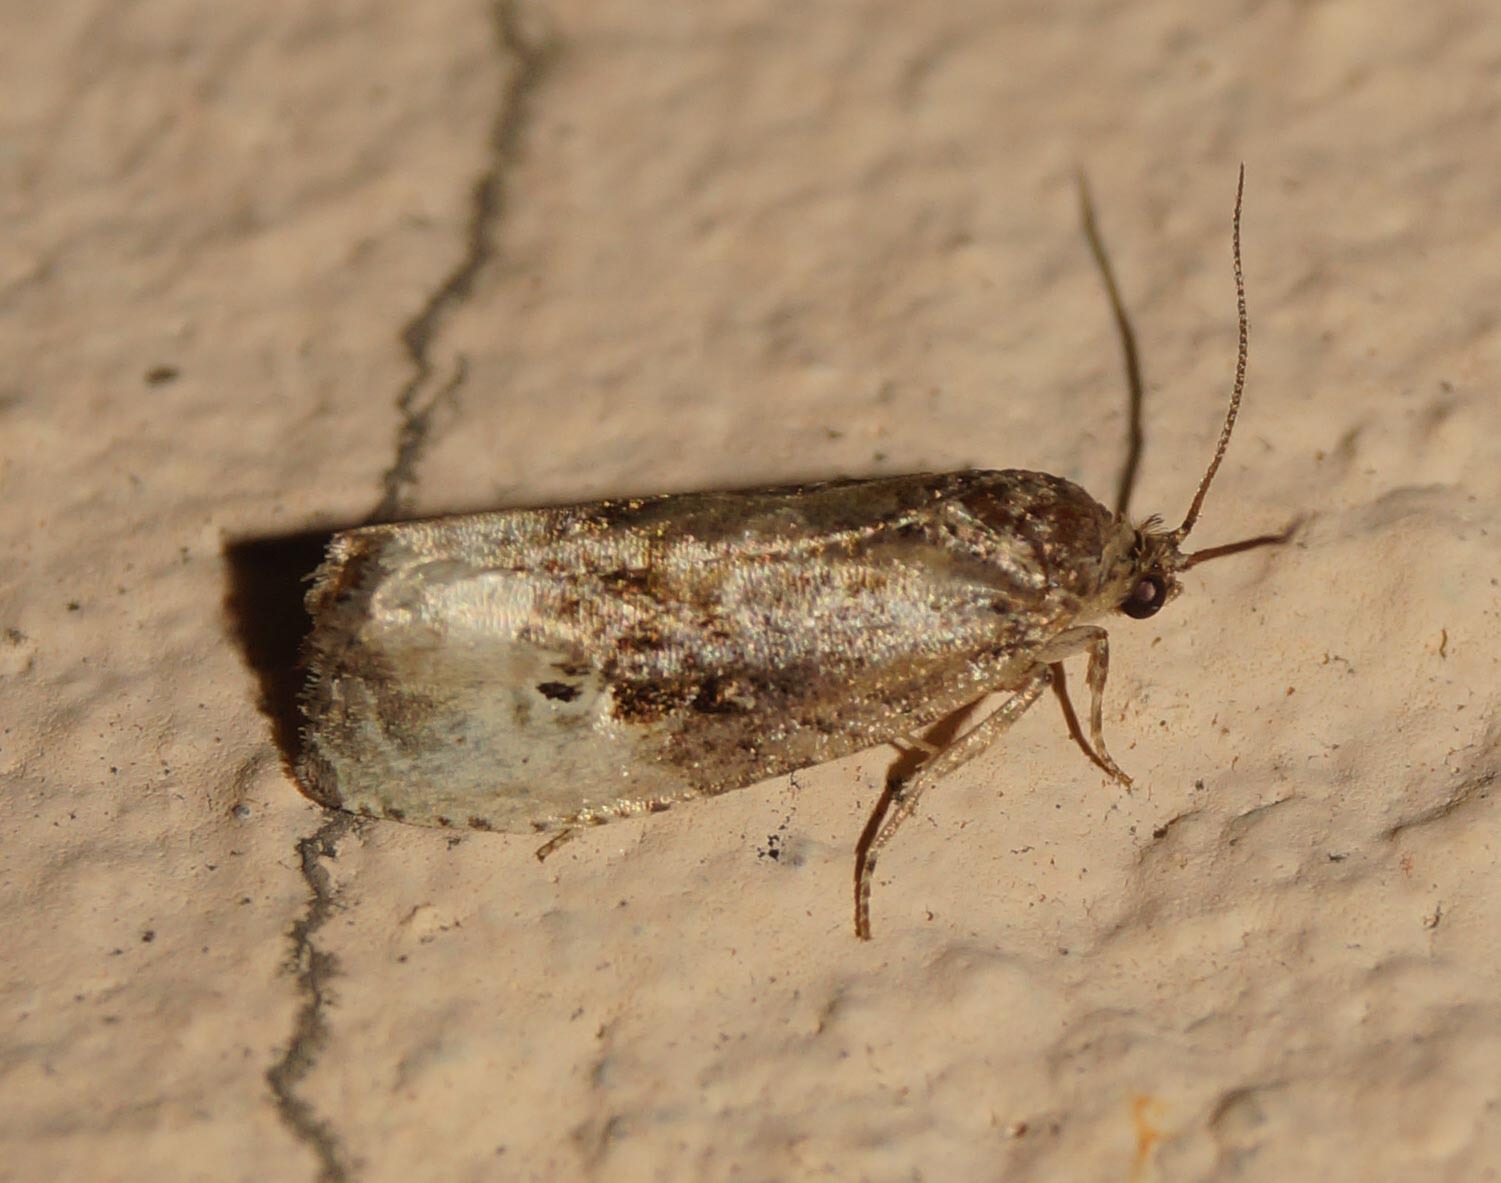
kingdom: Animalia
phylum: Arthropoda
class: Insecta
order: Lepidoptera
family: Tortricidae
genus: Hedya
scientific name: Hedya nubiferana
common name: Marbled orchard tortrix
